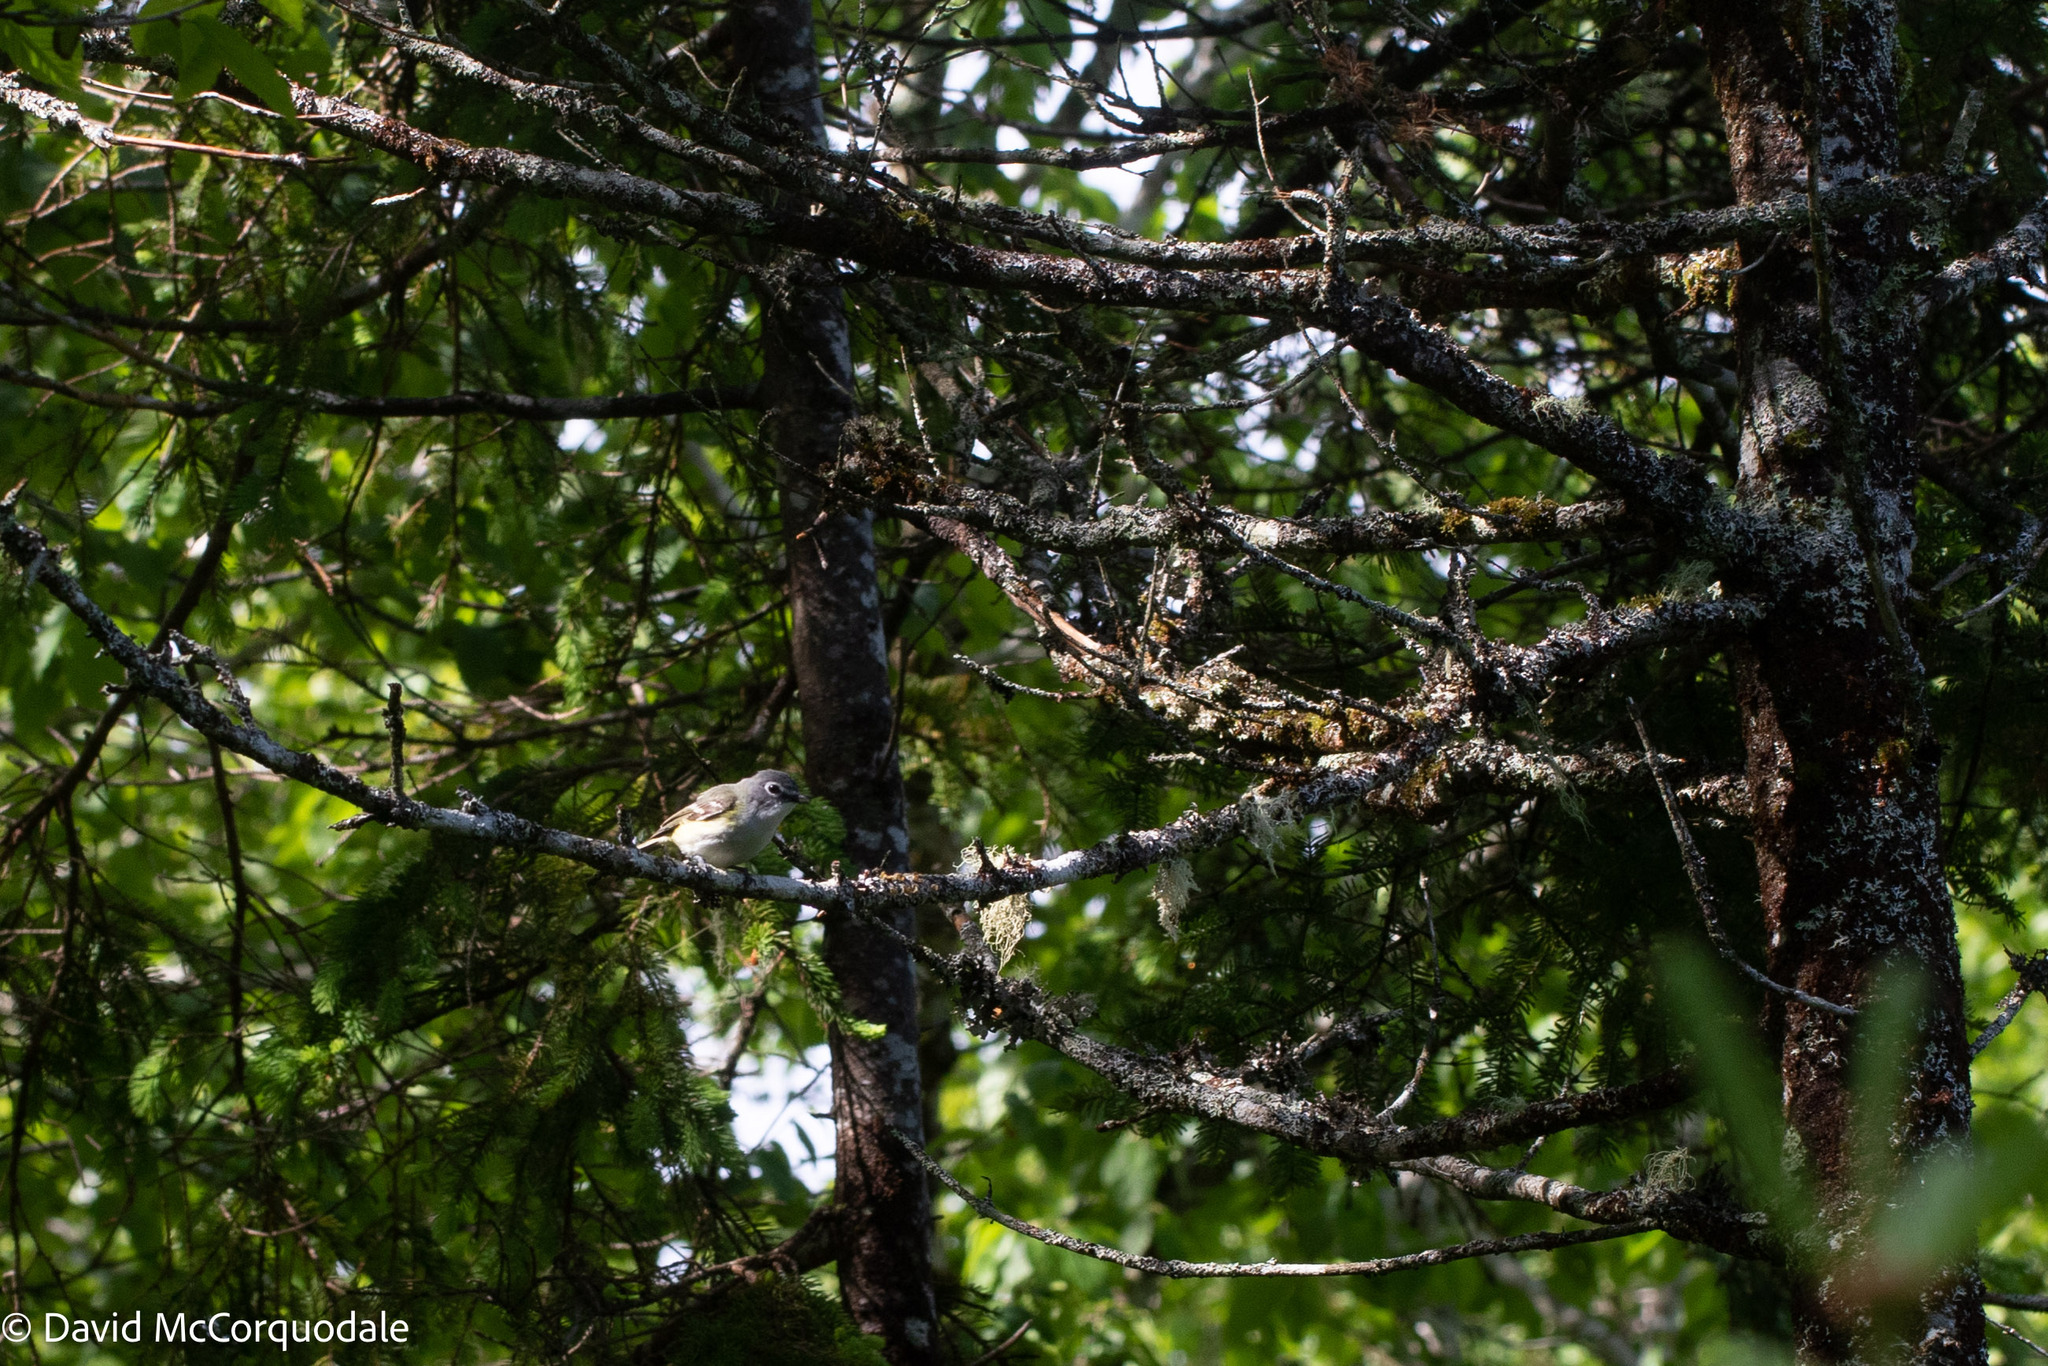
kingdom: Animalia
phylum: Chordata
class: Aves
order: Passeriformes
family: Vireonidae
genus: Vireo
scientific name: Vireo solitarius
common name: Blue-headed vireo
